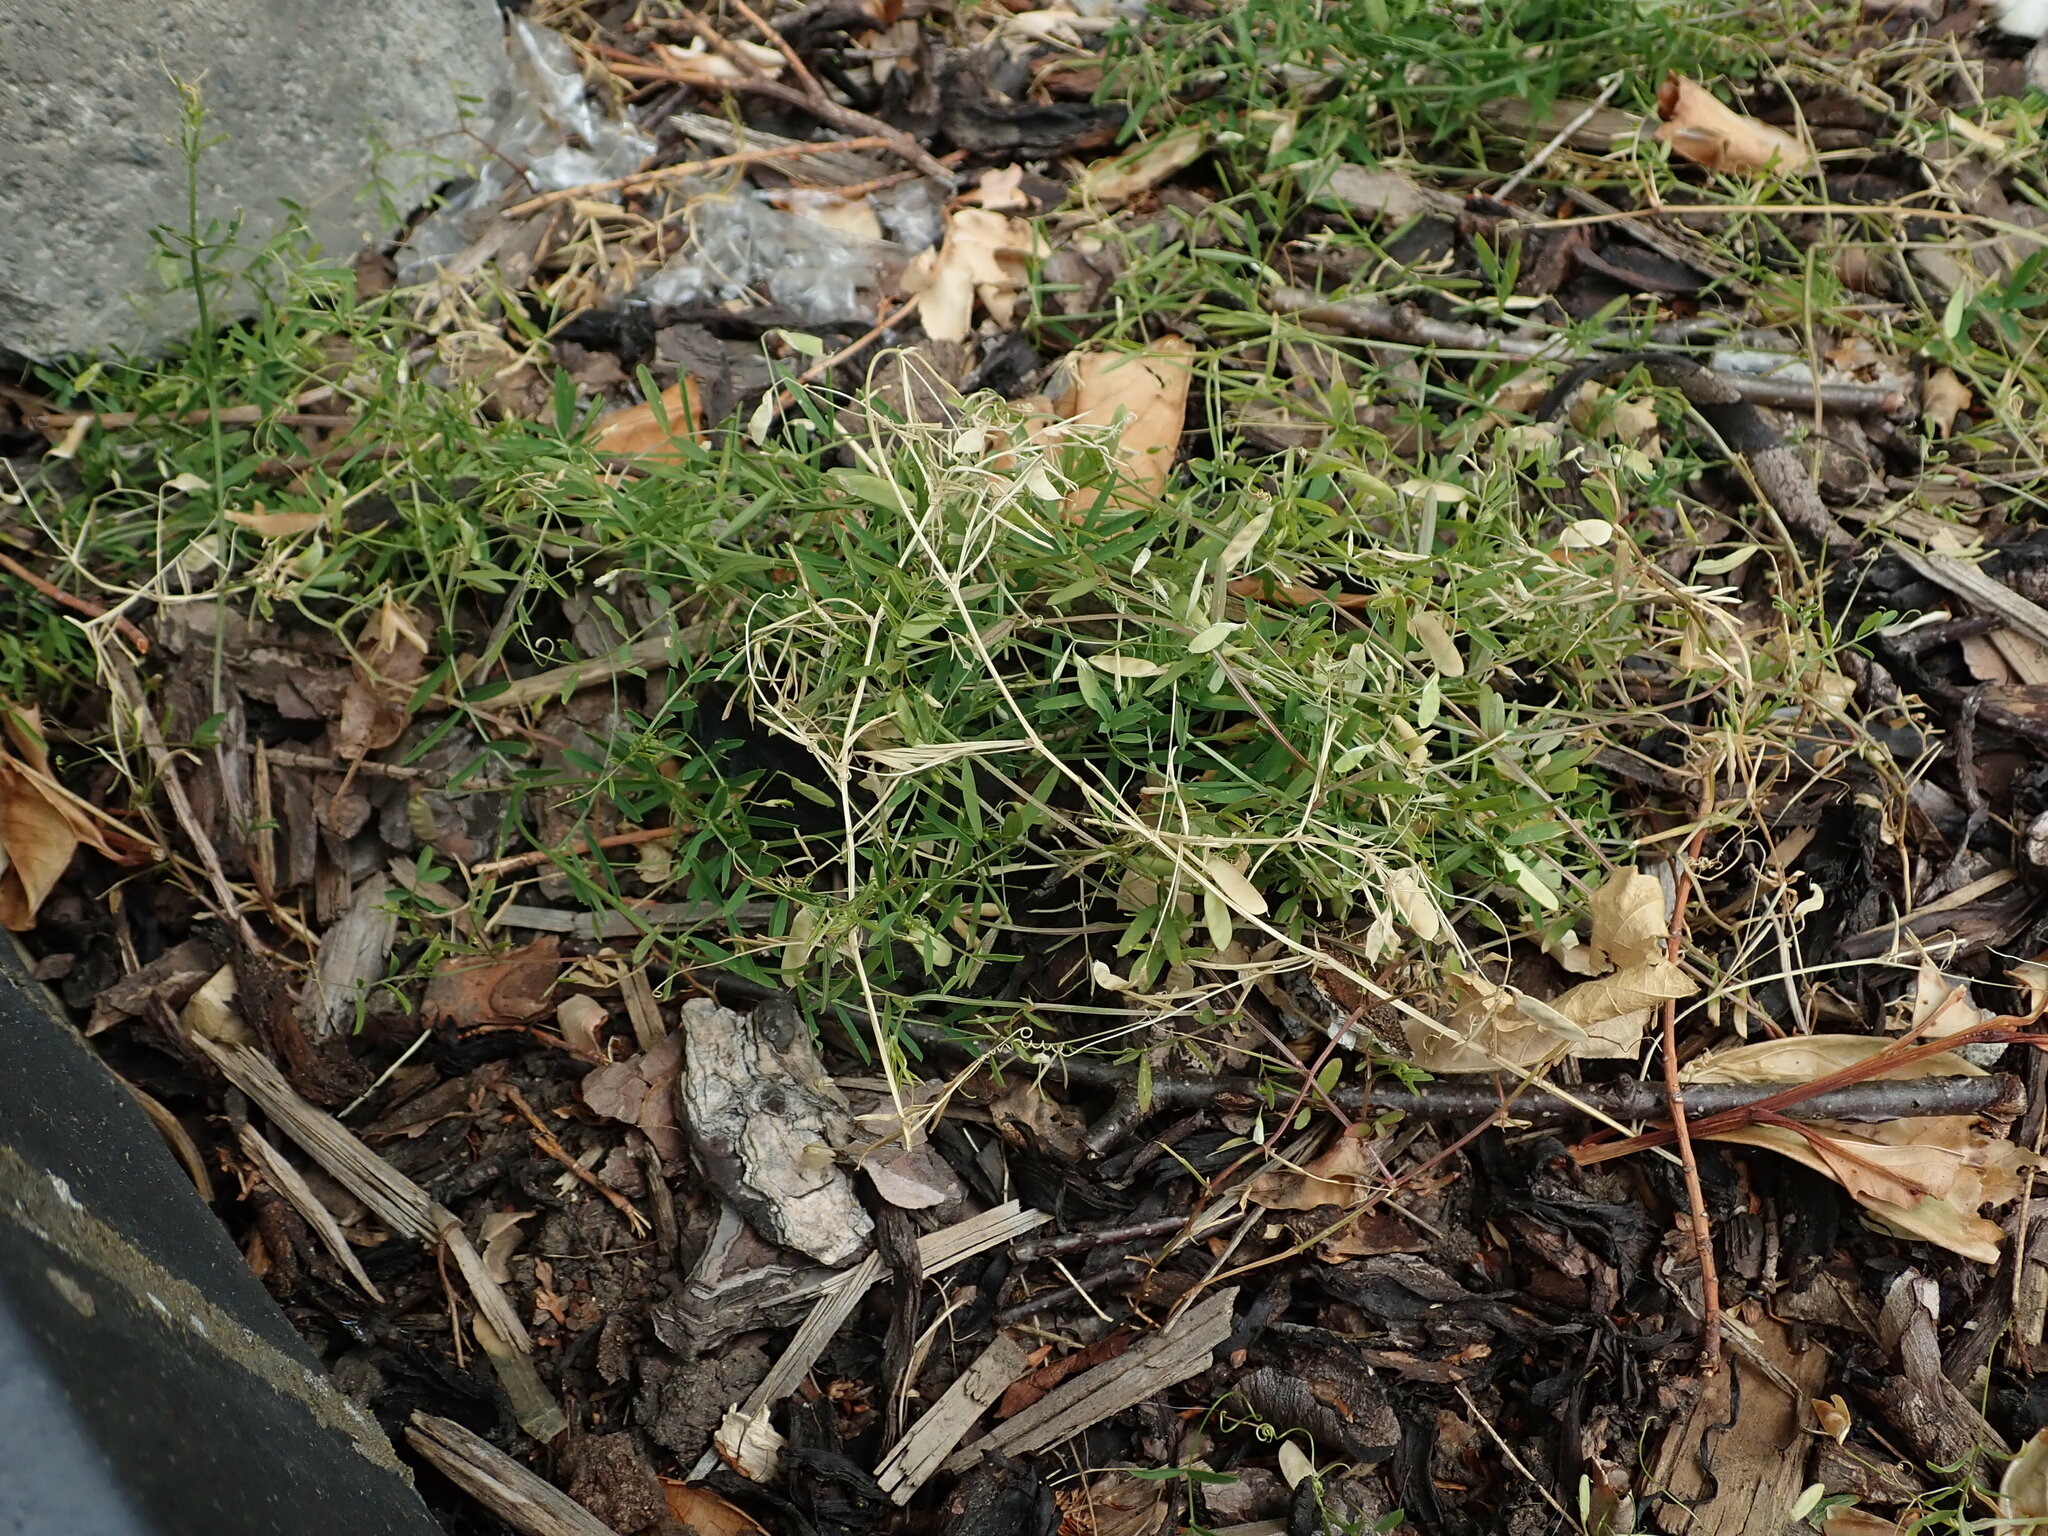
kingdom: Plantae
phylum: Tracheophyta
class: Magnoliopsida
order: Fabales
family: Fabaceae
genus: Vicia
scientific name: Vicia tetrasperma
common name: Smooth tare
